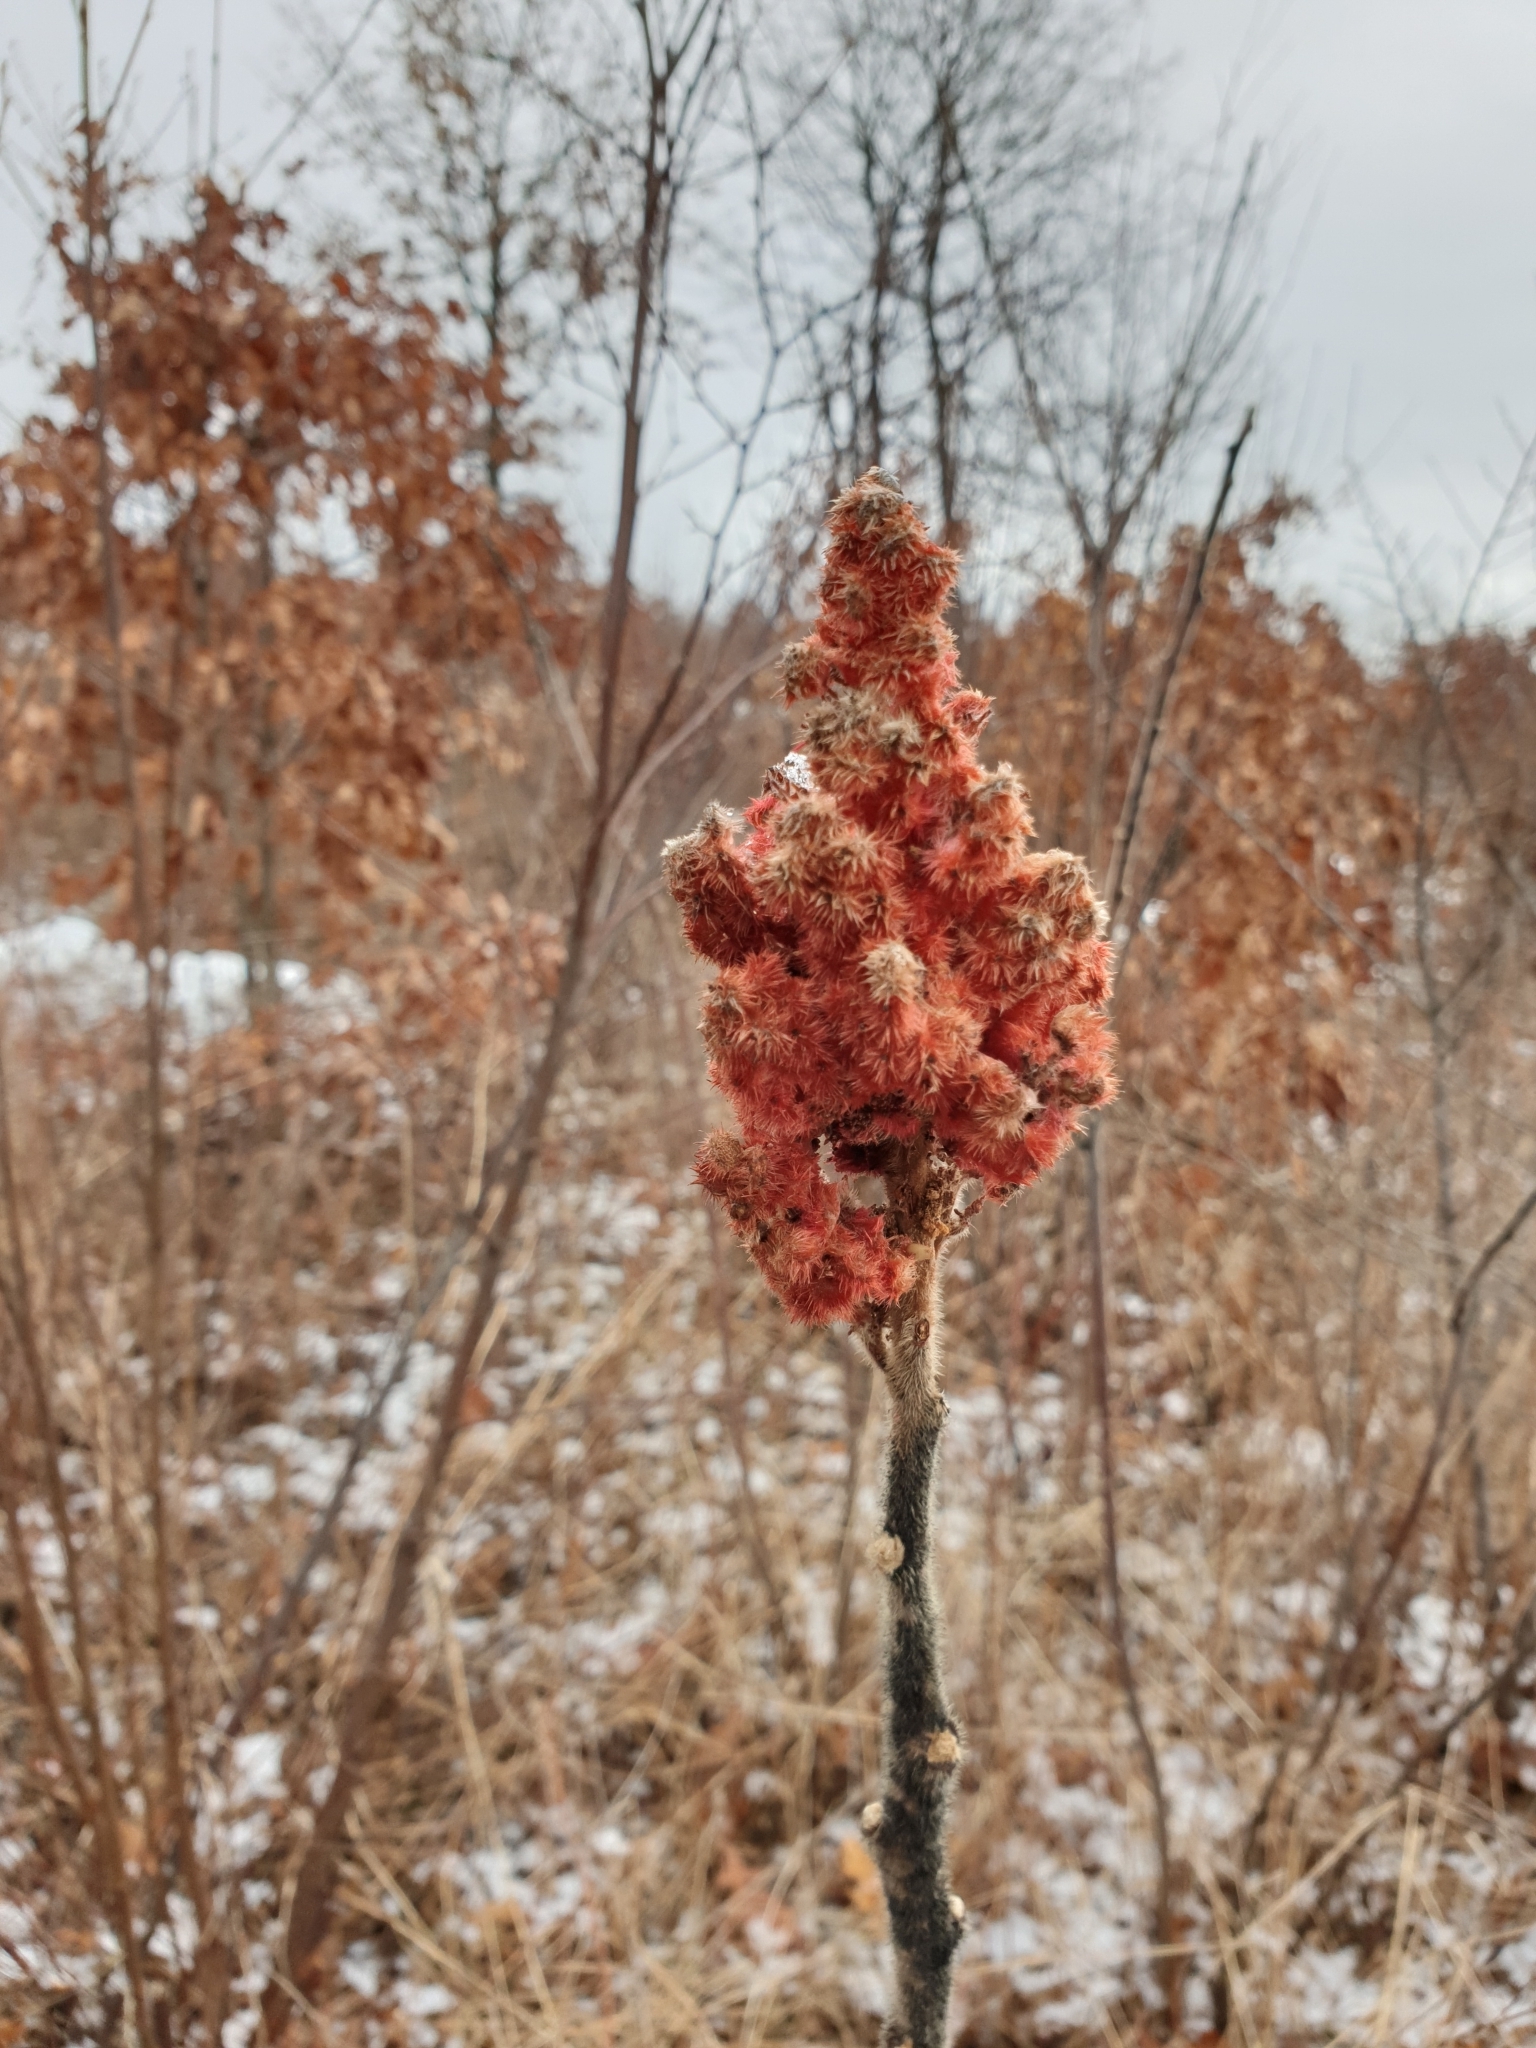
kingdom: Plantae
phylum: Tracheophyta
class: Magnoliopsida
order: Sapindales
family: Anacardiaceae
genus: Rhus
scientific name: Rhus typhina
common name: Staghorn sumac
